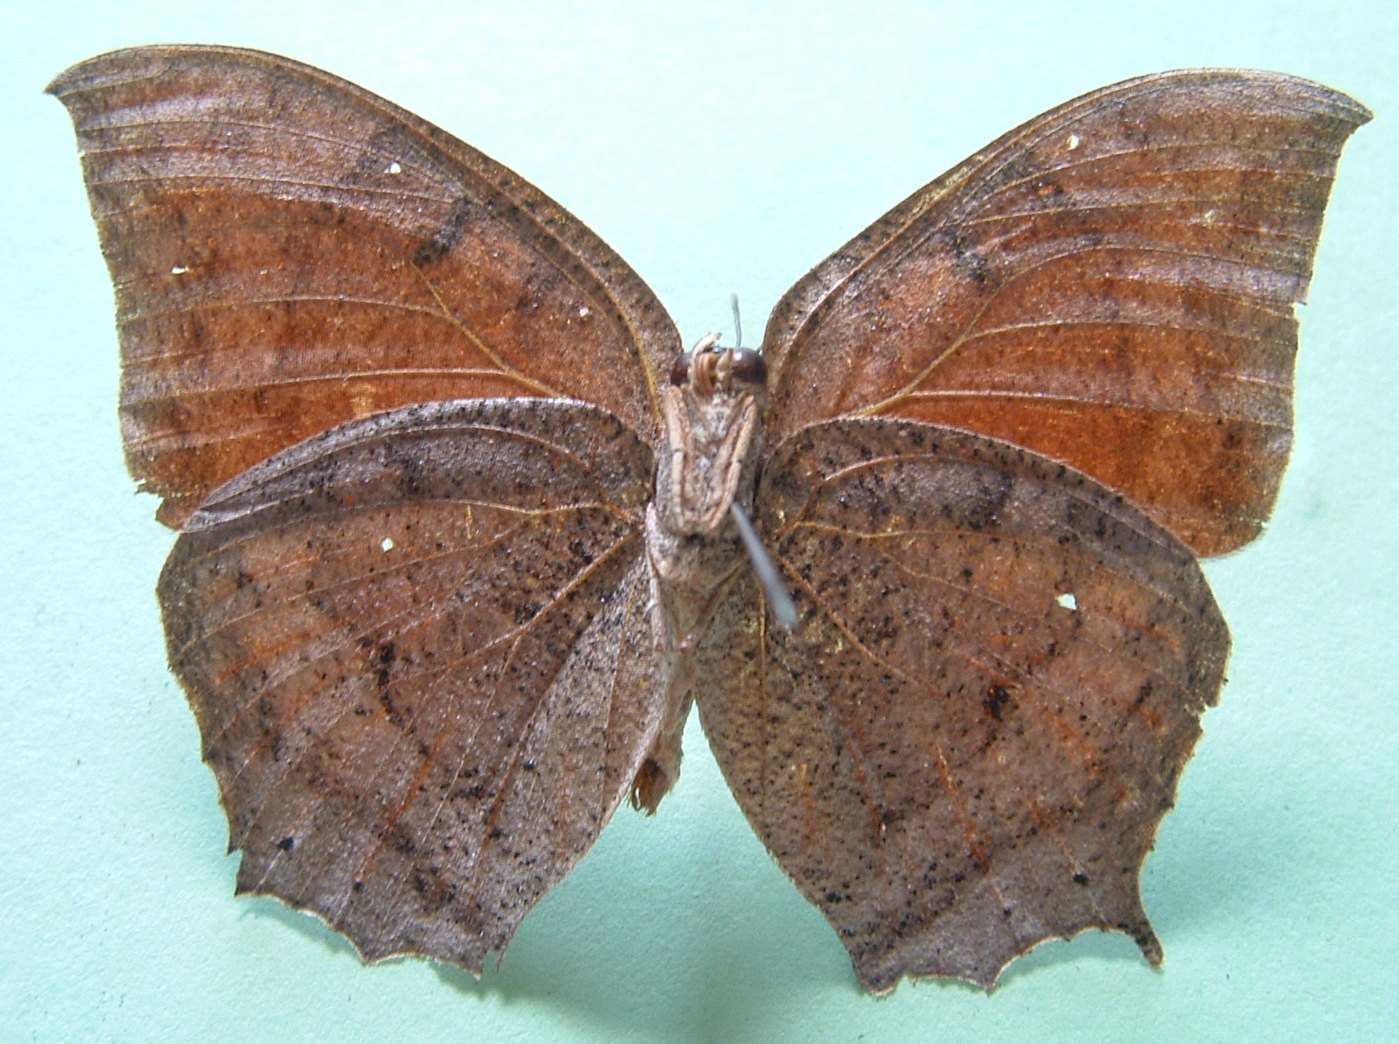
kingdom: Animalia
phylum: Arthropoda
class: Insecta
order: Lepidoptera
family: Nymphalidae
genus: Anaea
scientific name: Anaea aidea
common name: Tropical leafwing
